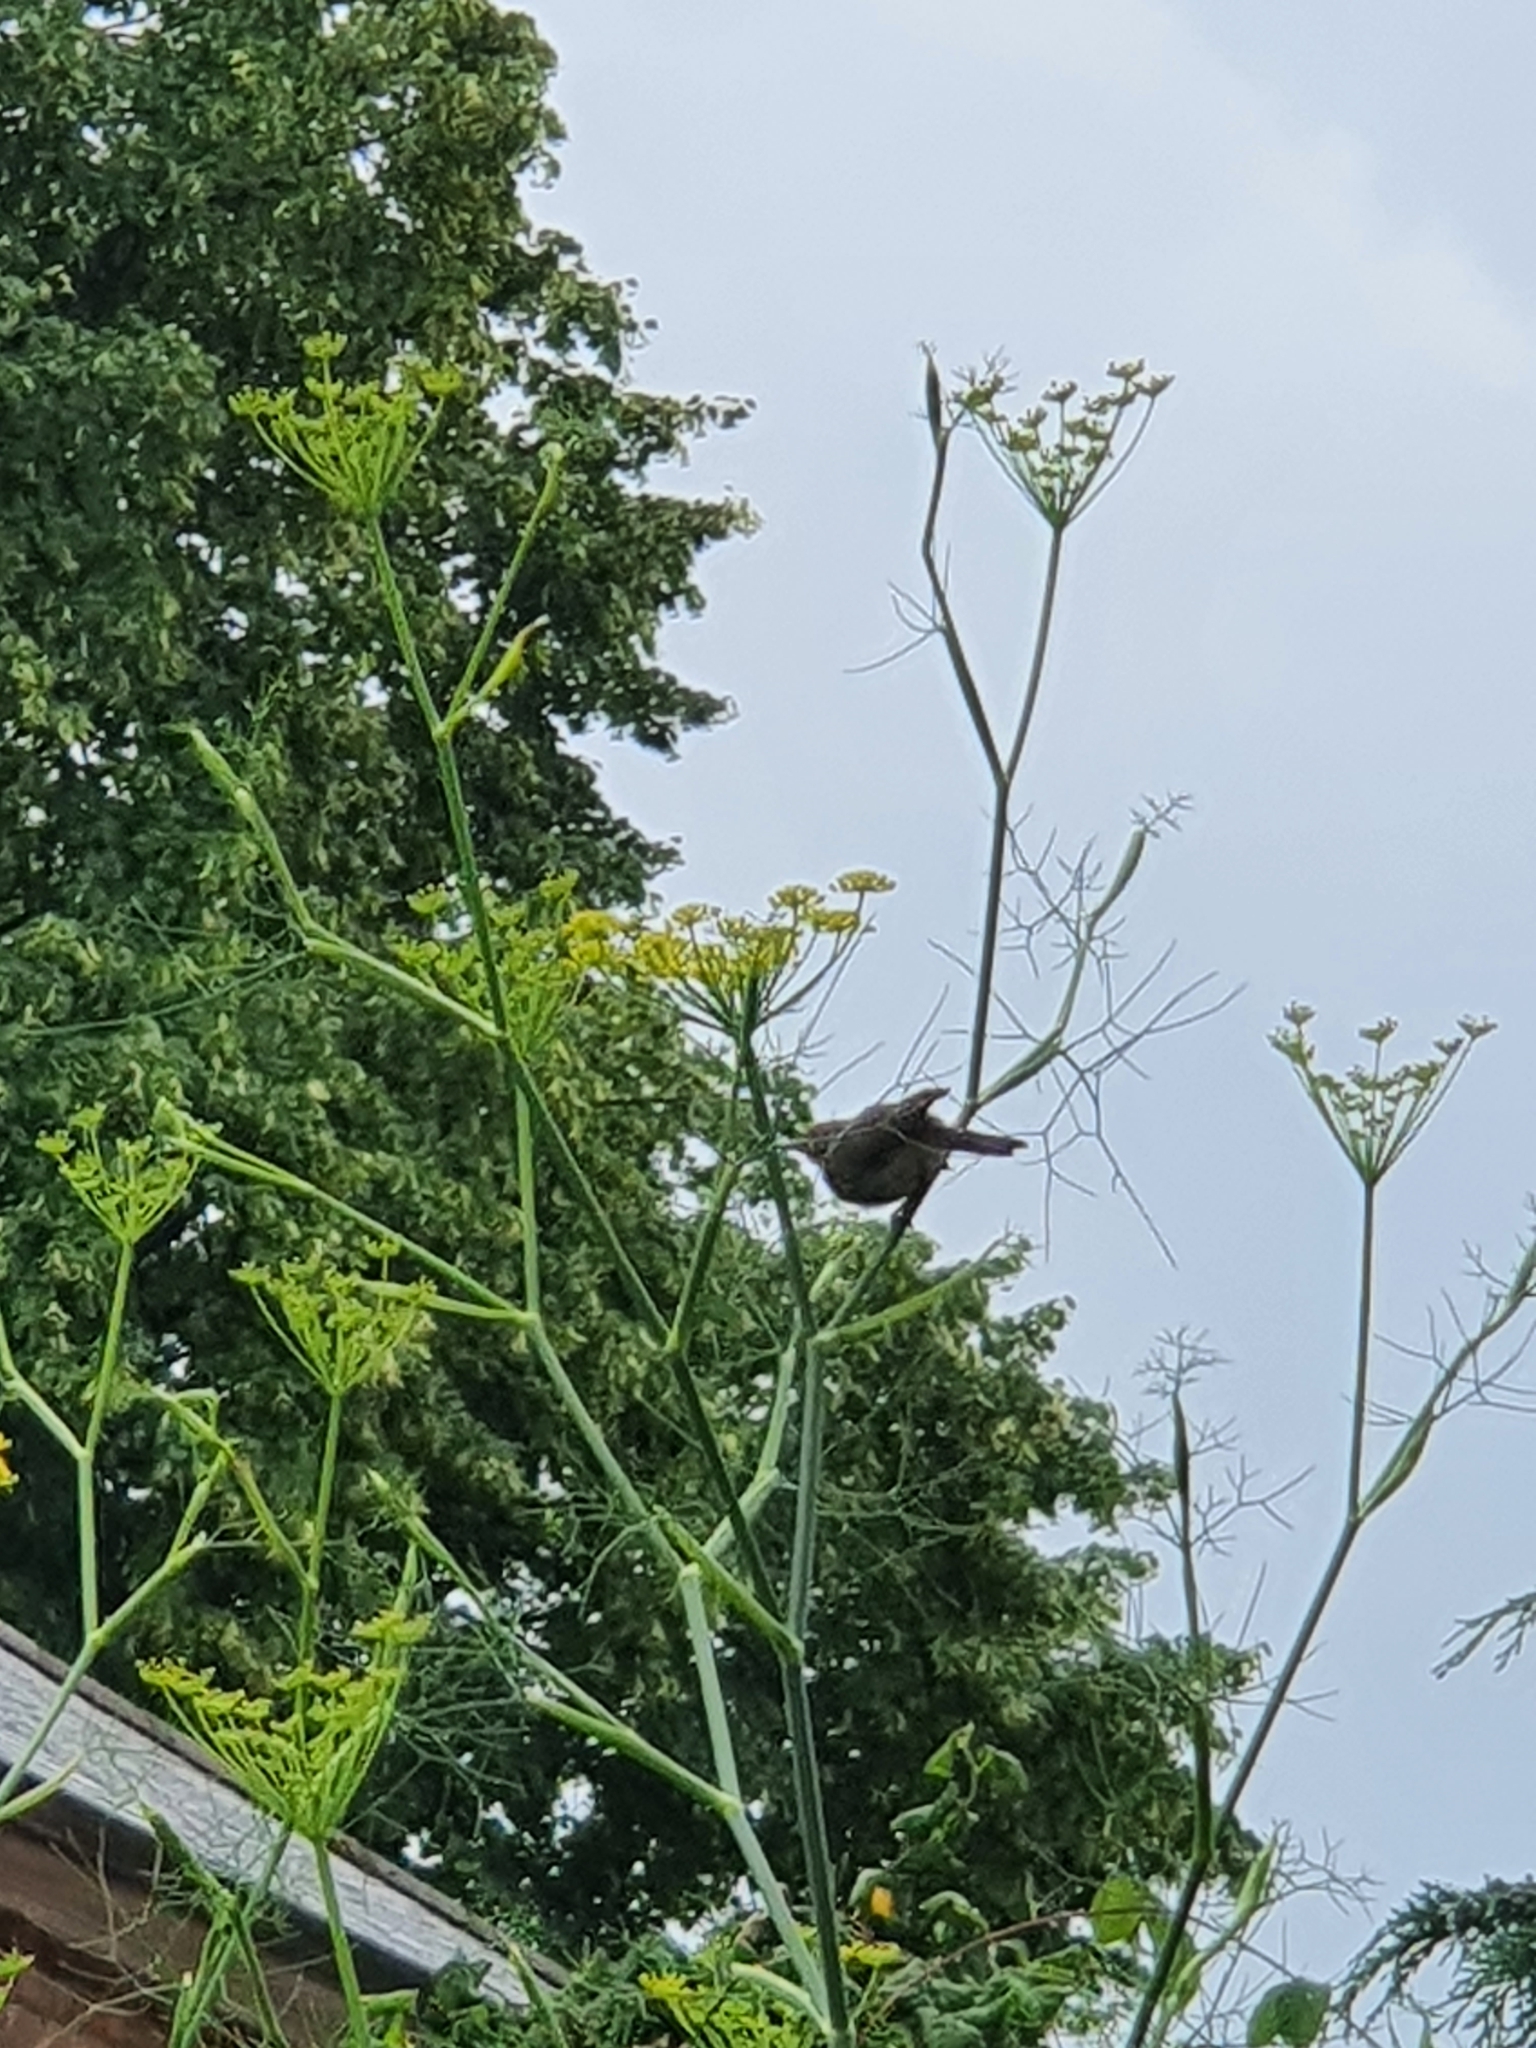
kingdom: Animalia
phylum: Chordata
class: Aves
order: Passeriformes
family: Phylloscopidae
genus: Phylloscopus
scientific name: Phylloscopus collybita
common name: Common chiffchaff
